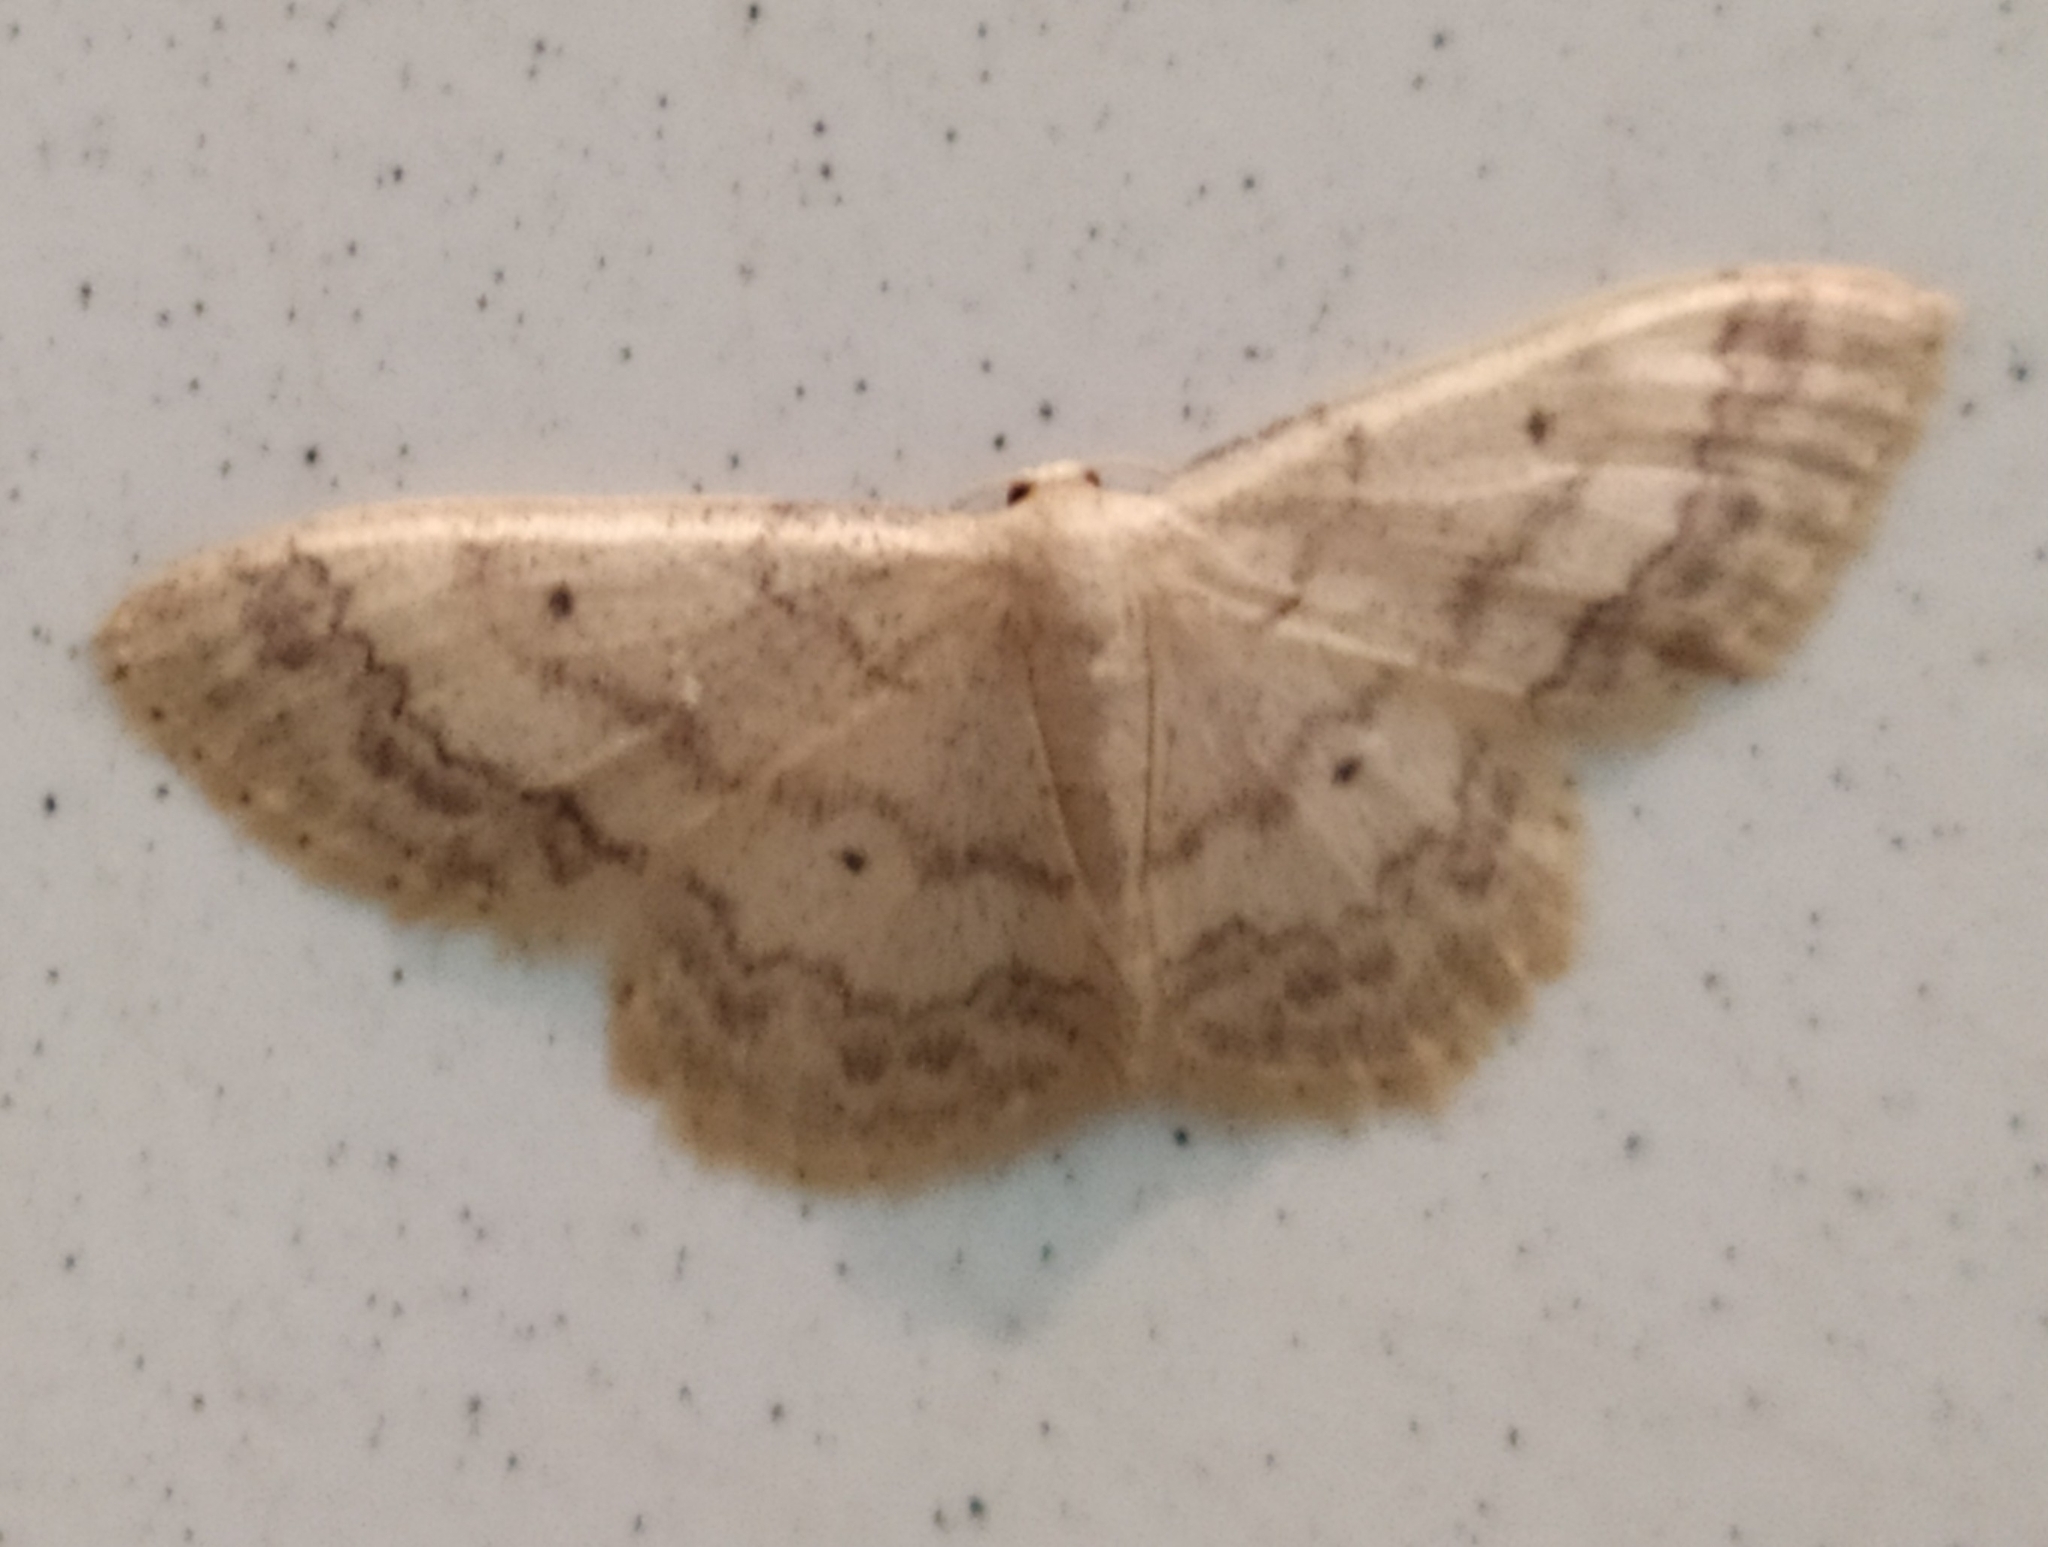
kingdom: Animalia
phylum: Arthropoda
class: Insecta
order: Lepidoptera
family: Geometridae
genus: Idaea
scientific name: Idaea biselata
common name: Small fan-footed wave
